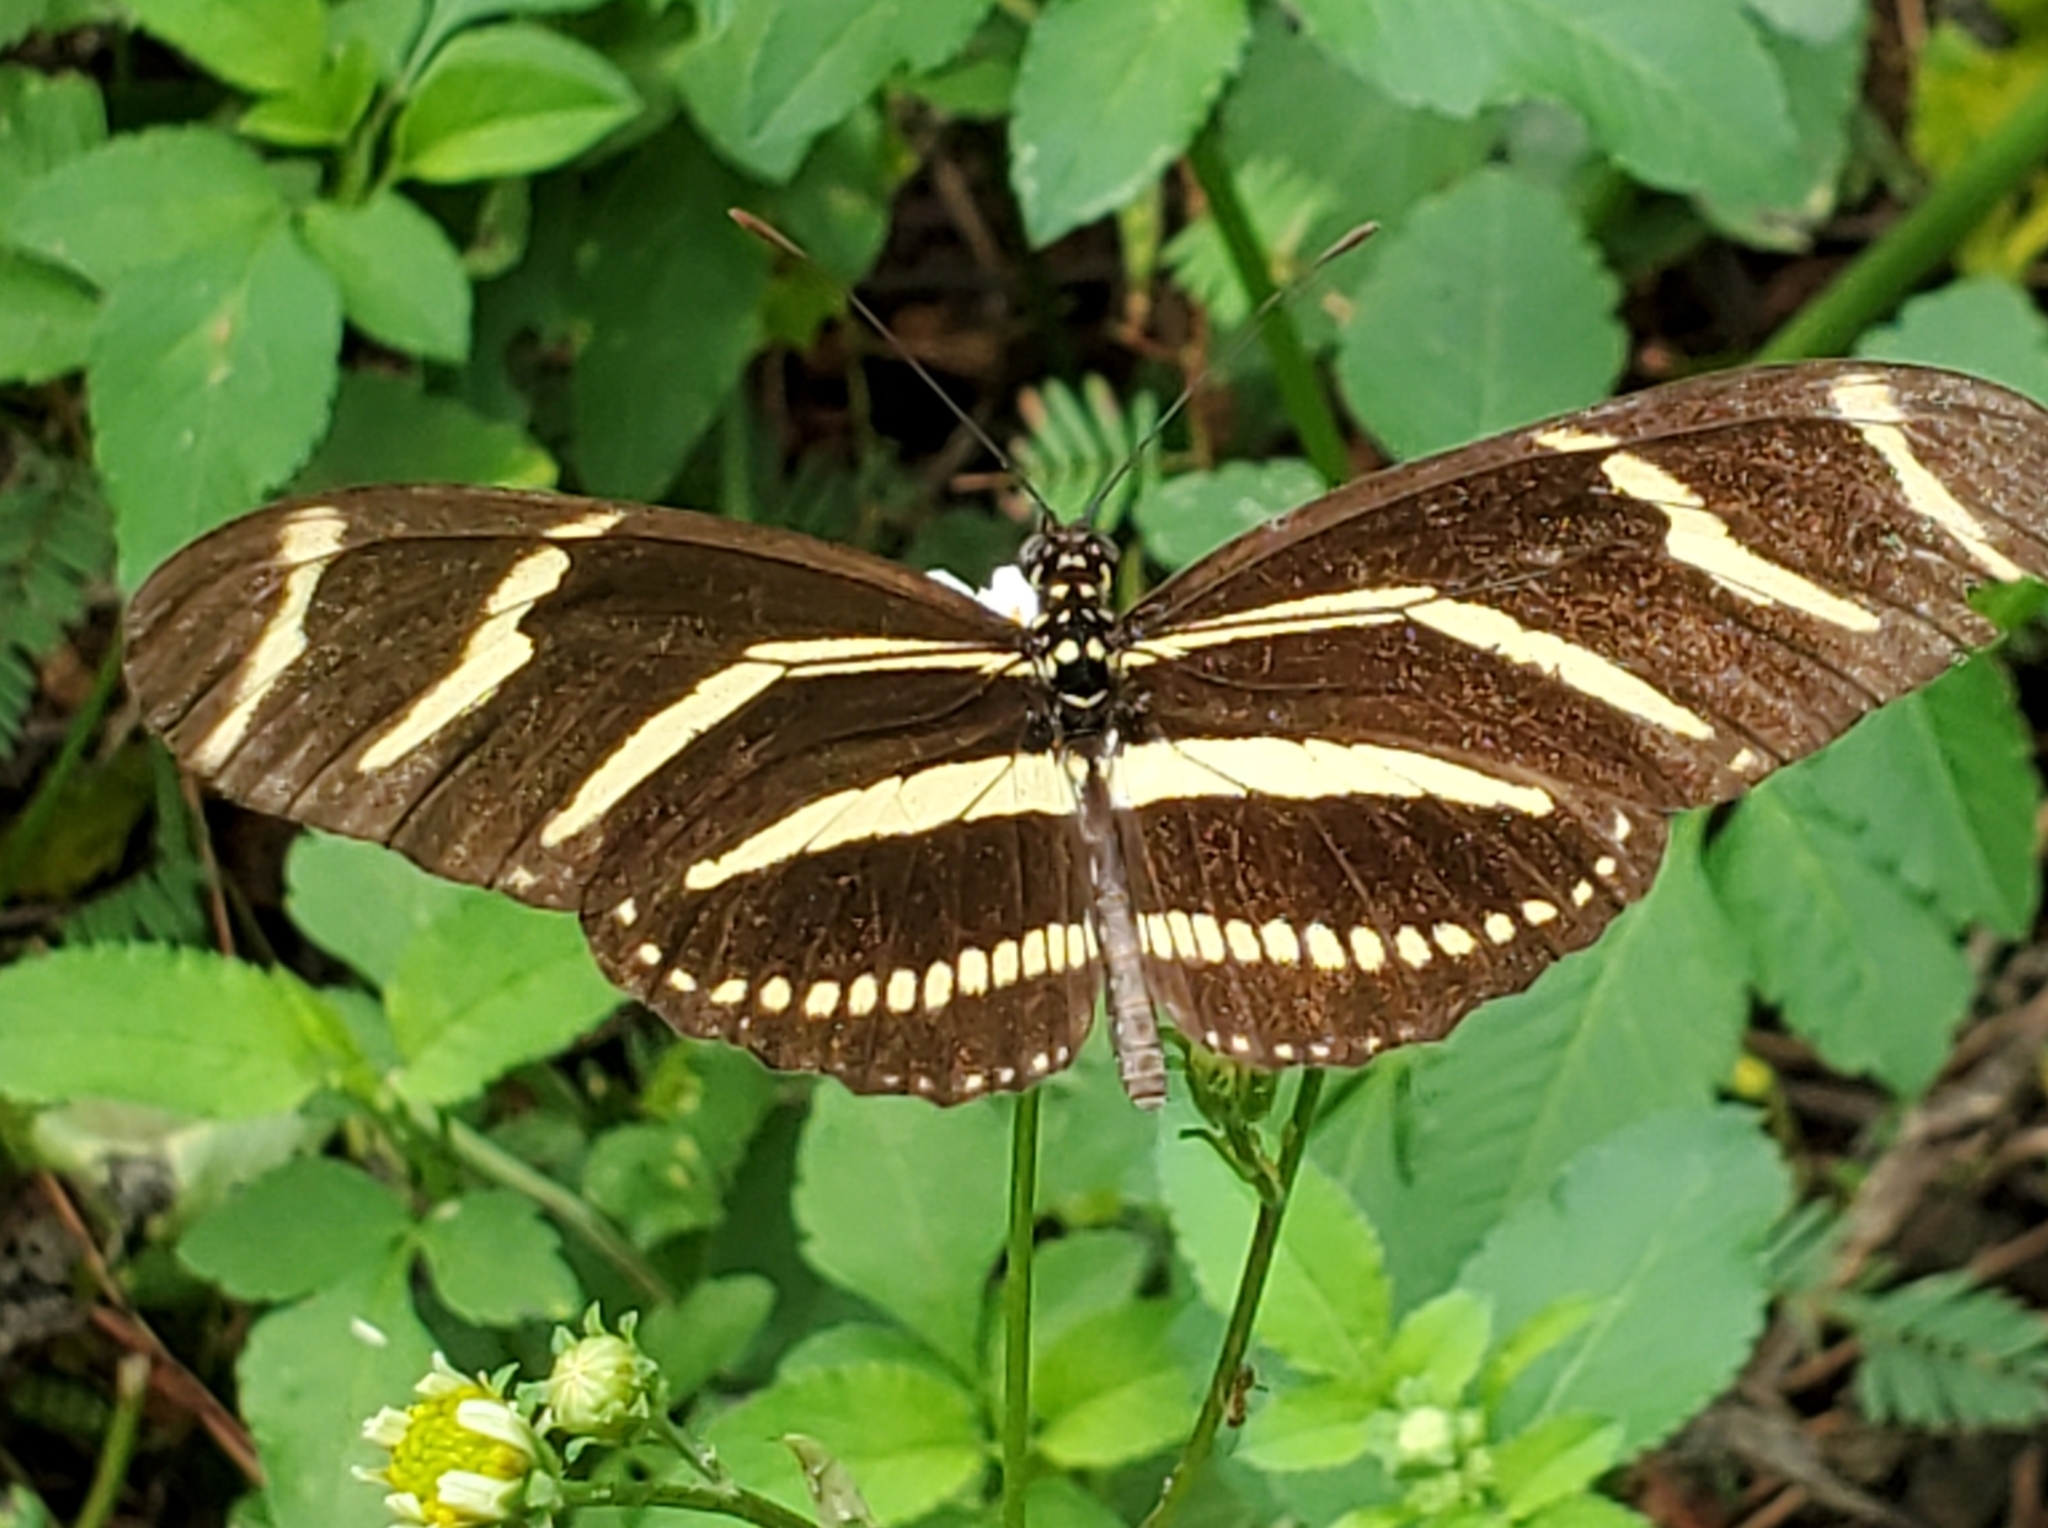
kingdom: Animalia
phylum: Arthropoda
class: Insecta
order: Lepidoptera
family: Nymphalidae
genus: Heliconius
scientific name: Heliconius charithonia
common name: Zebra long wing
